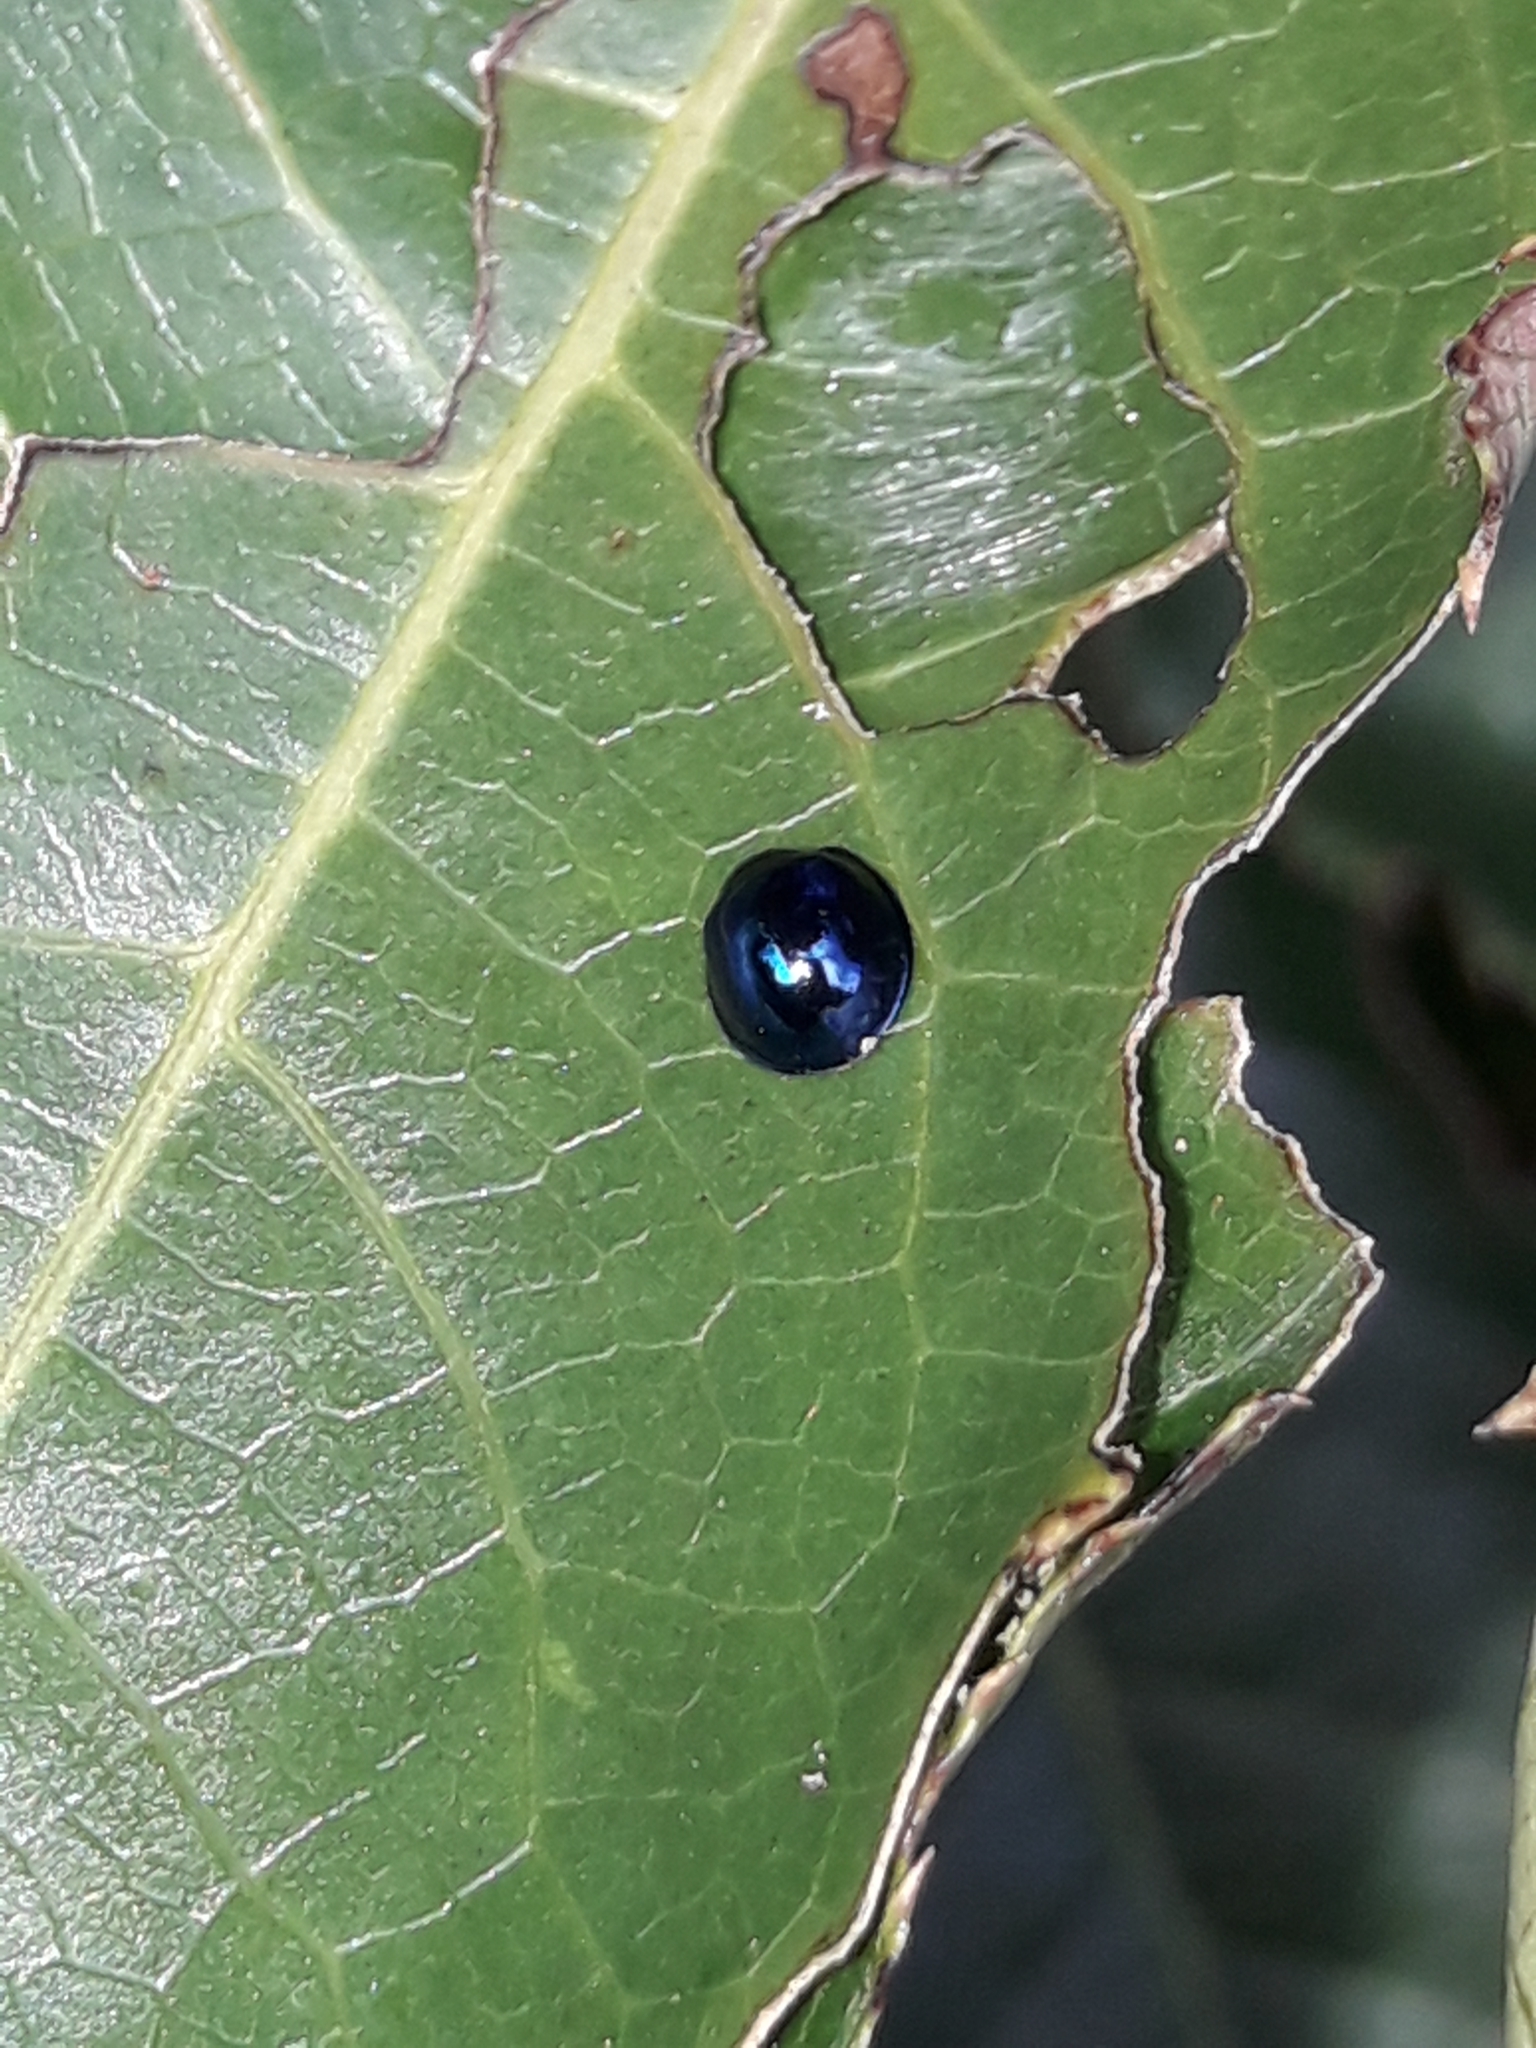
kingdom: Animalia
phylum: Arthropoda
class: Insecta
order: Coleoptera
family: Coccinellidae
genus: Halmus
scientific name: Halmus chalybeus
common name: Steel blue ladybird beetle
